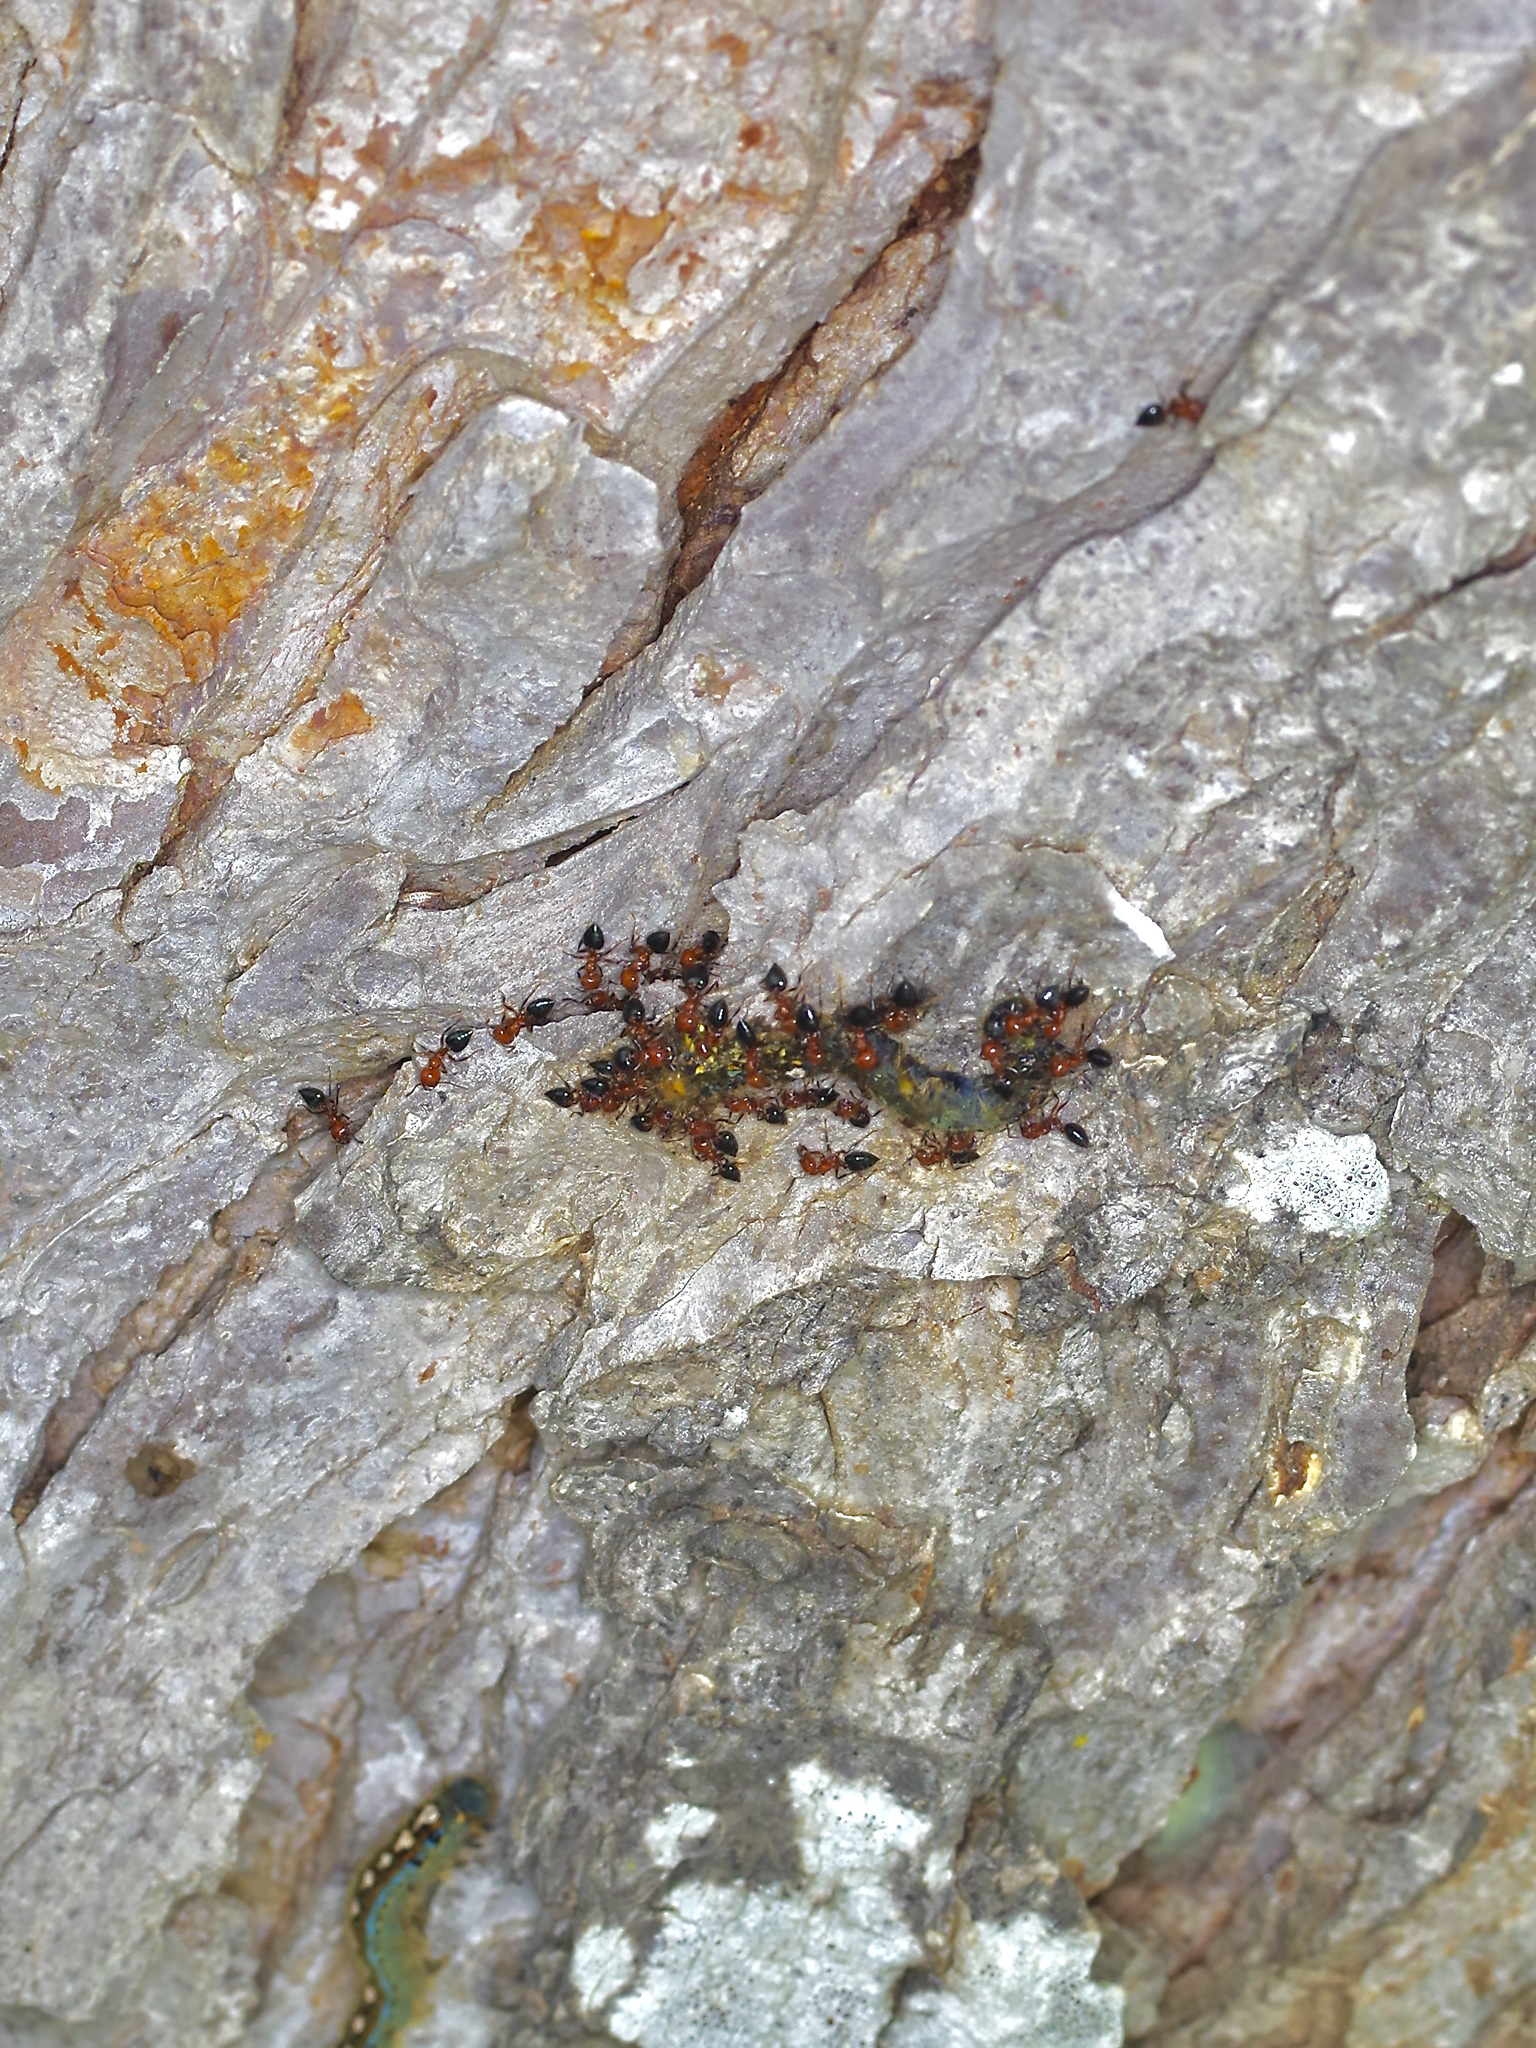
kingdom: Animalia
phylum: Arthropoda
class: Insecta
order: Hymenoptera
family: Formicidae
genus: Crematogaster
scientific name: Crematogaster laeviuscula
